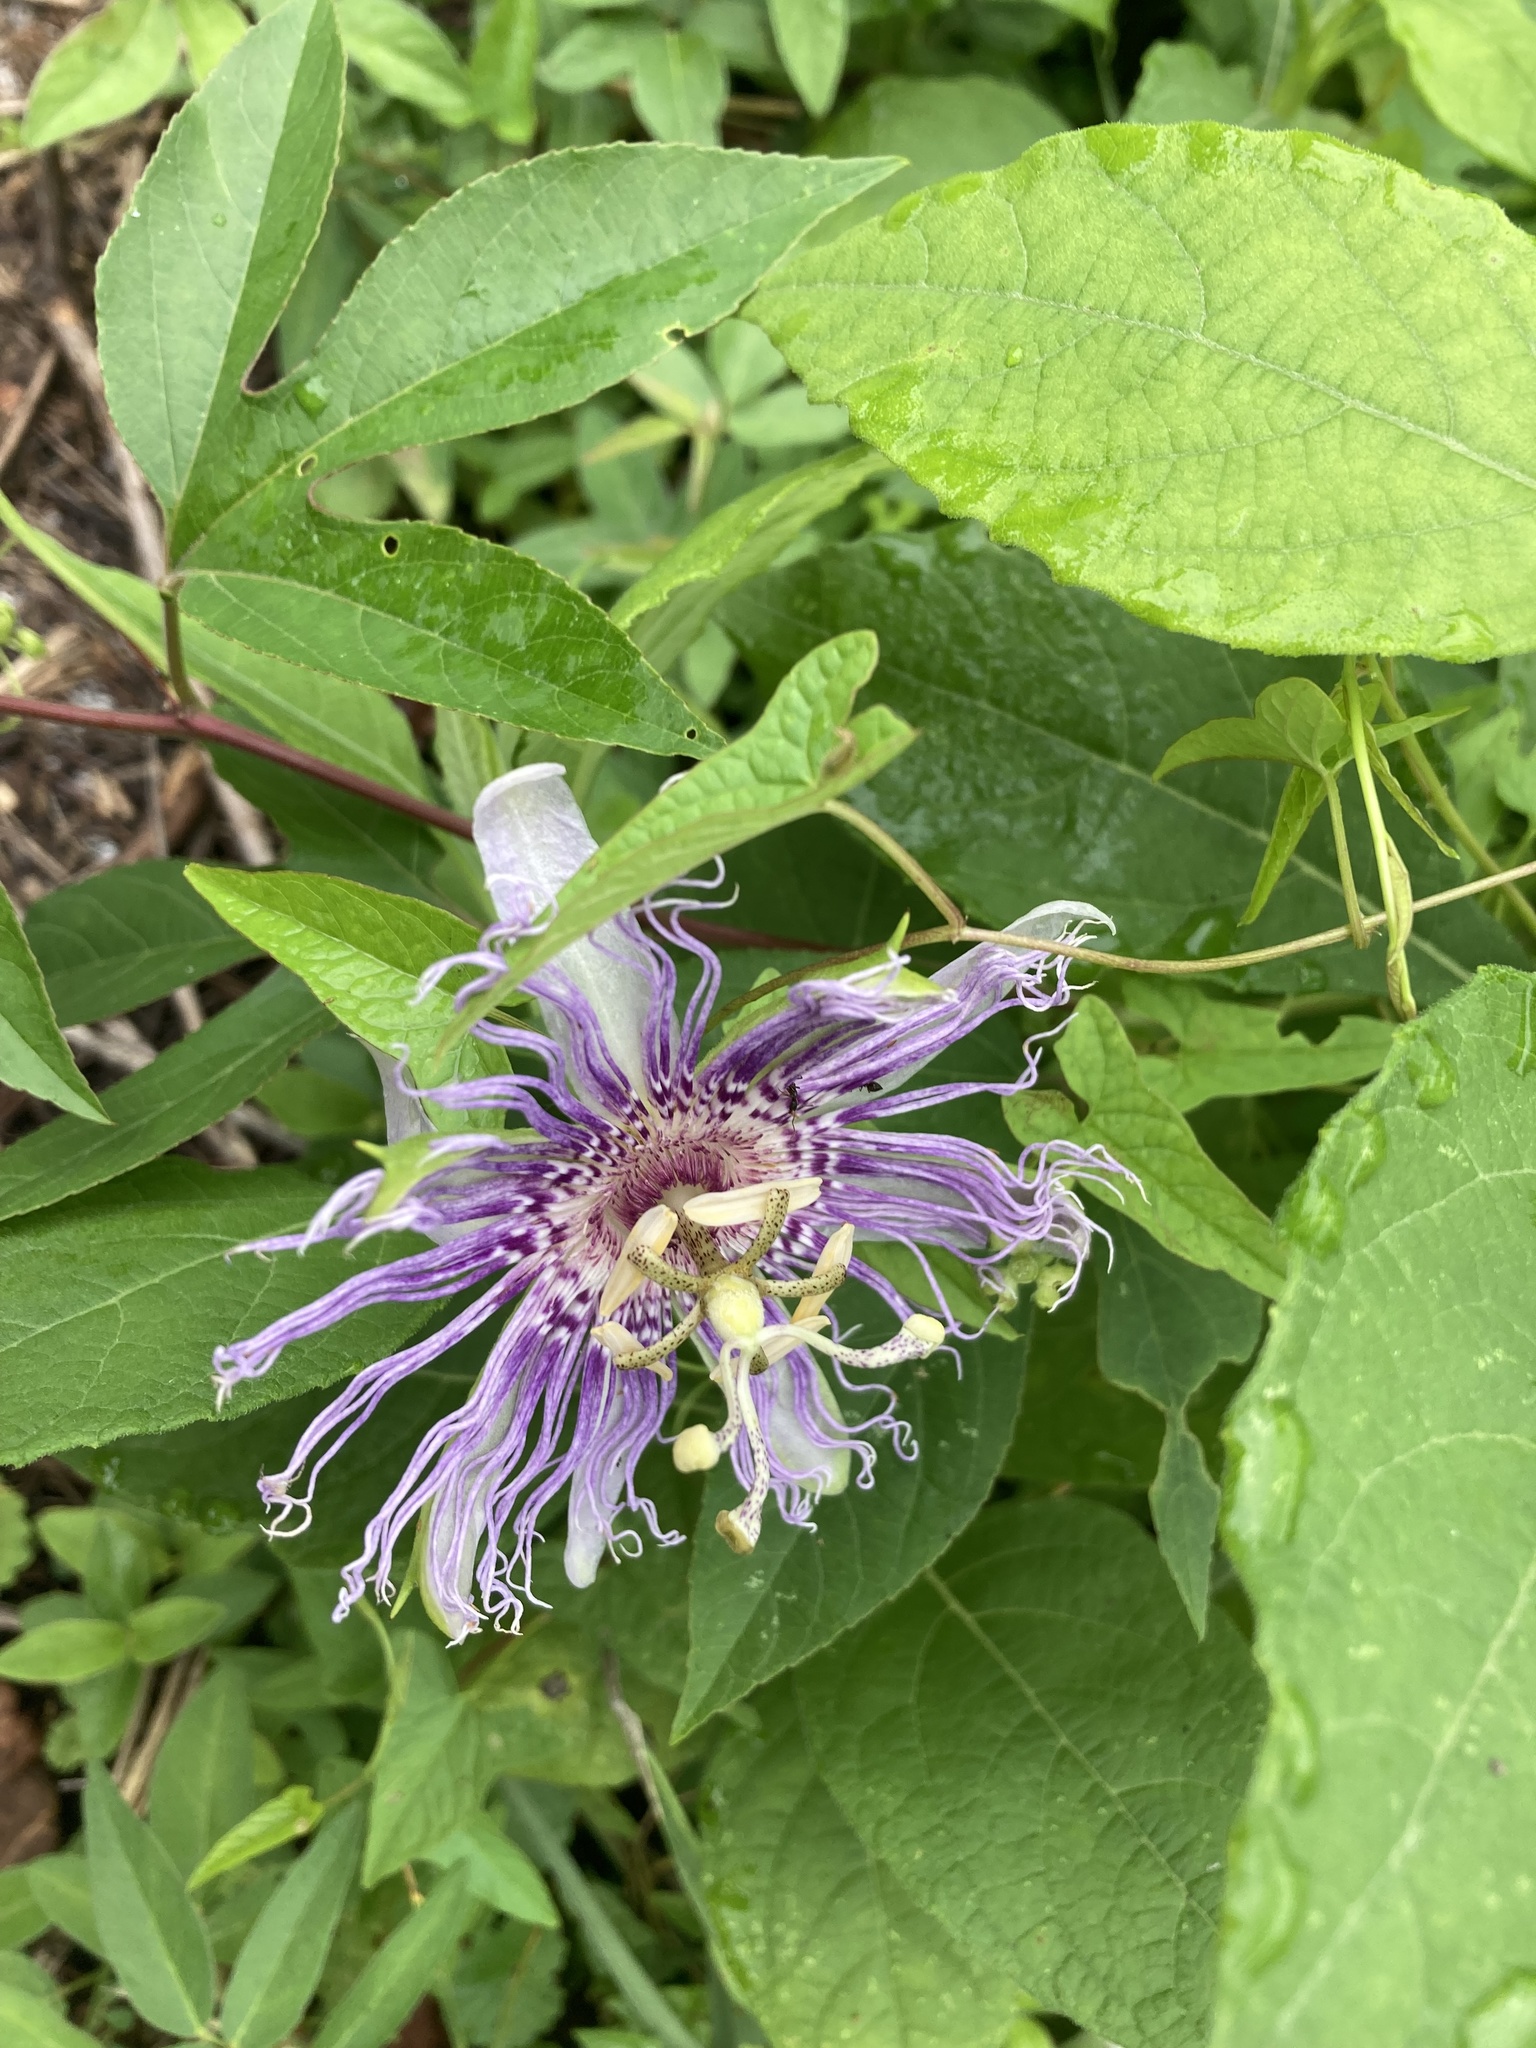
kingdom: Plantae
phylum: Tracheophyta
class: Magnoliopsida
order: Malpighiales
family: Passifloraceae
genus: Passiflora
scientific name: Passiflora incarnata
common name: Apricot-vine
